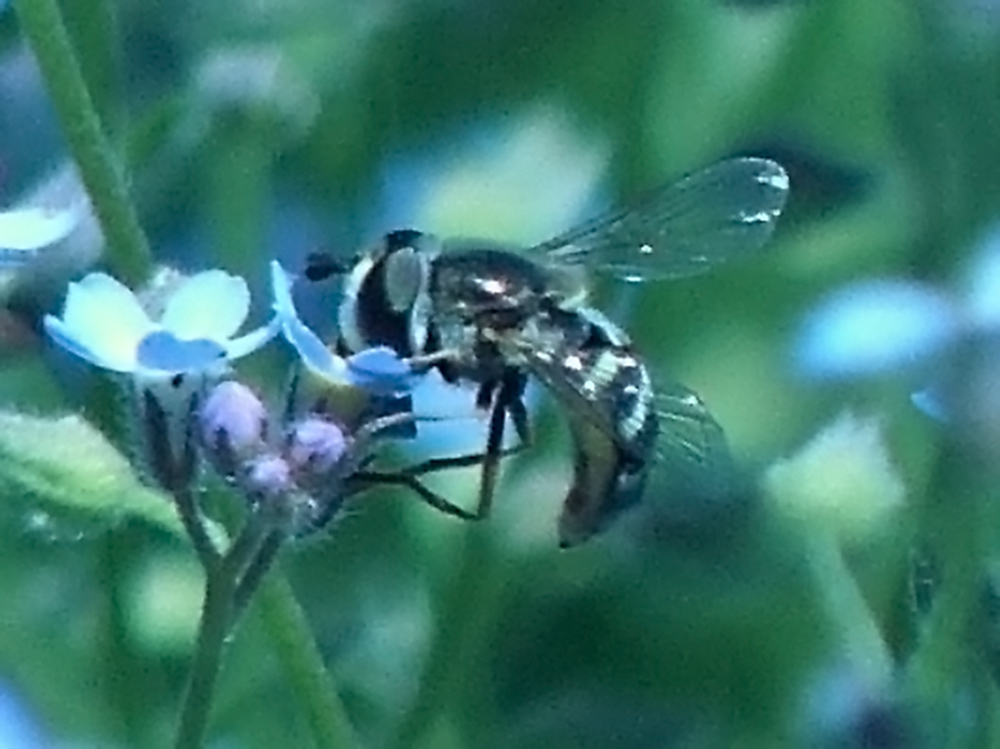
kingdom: Animalia
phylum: Arthropoda
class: Insecta
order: Diptera
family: Syrphidae
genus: Eupeodes
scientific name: Eupeodes volucris
